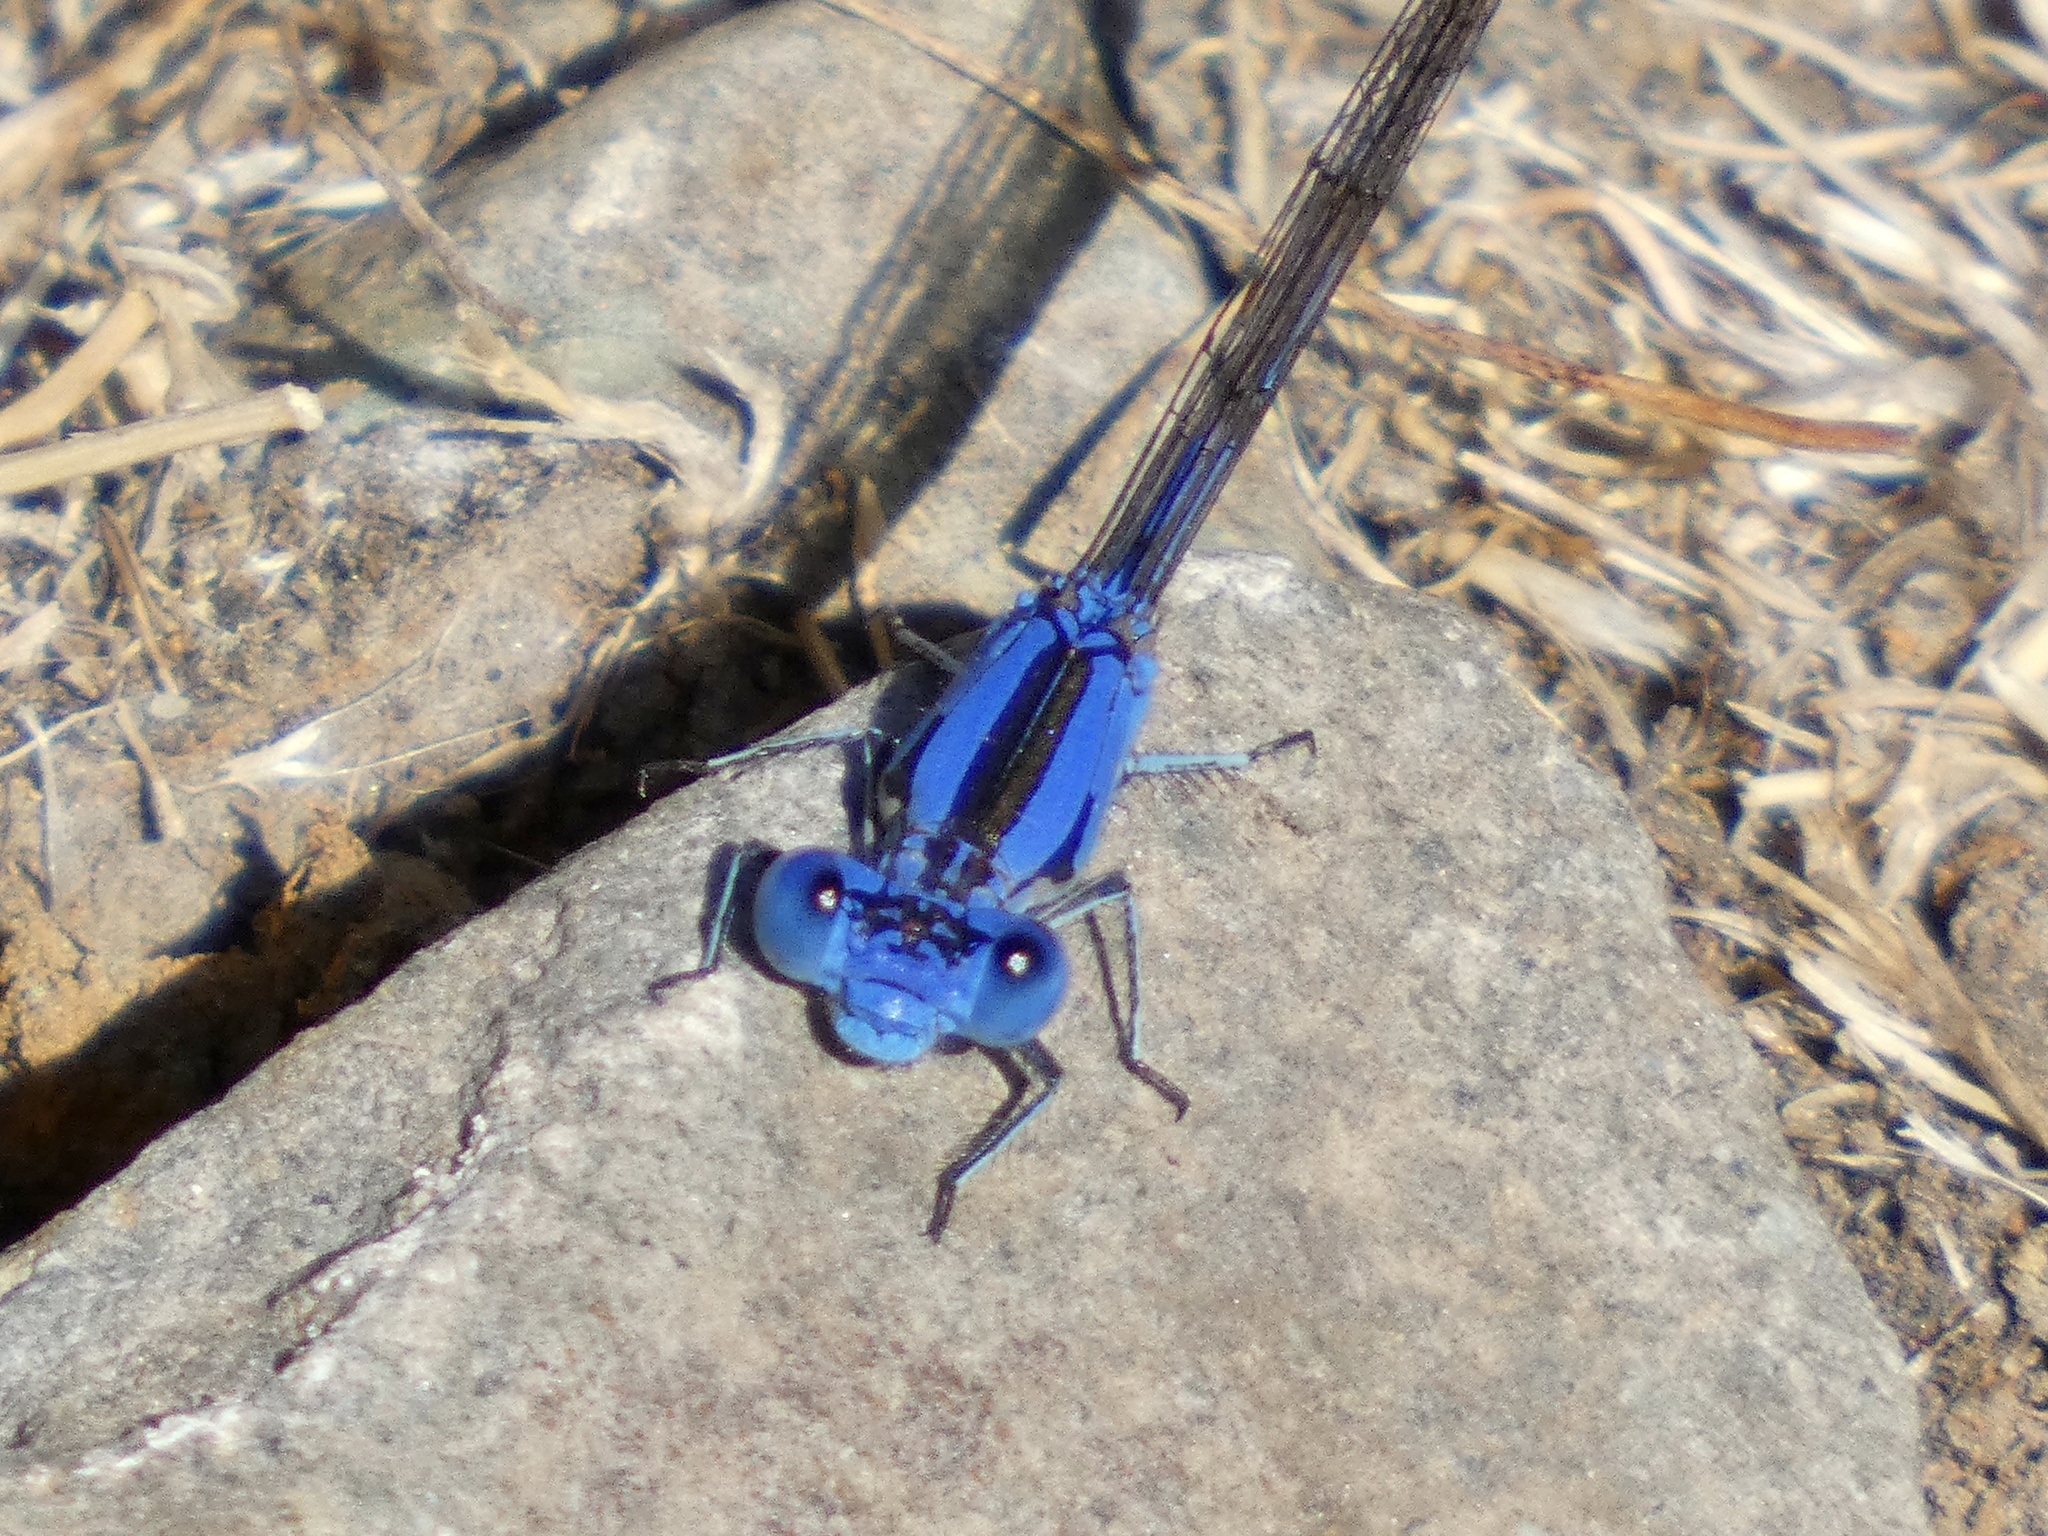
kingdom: Animalia
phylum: Arthropoda
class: Insecta
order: Odonata
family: Coenagrionidae
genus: Argia
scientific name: Argia vivida
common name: Vivid dancer
